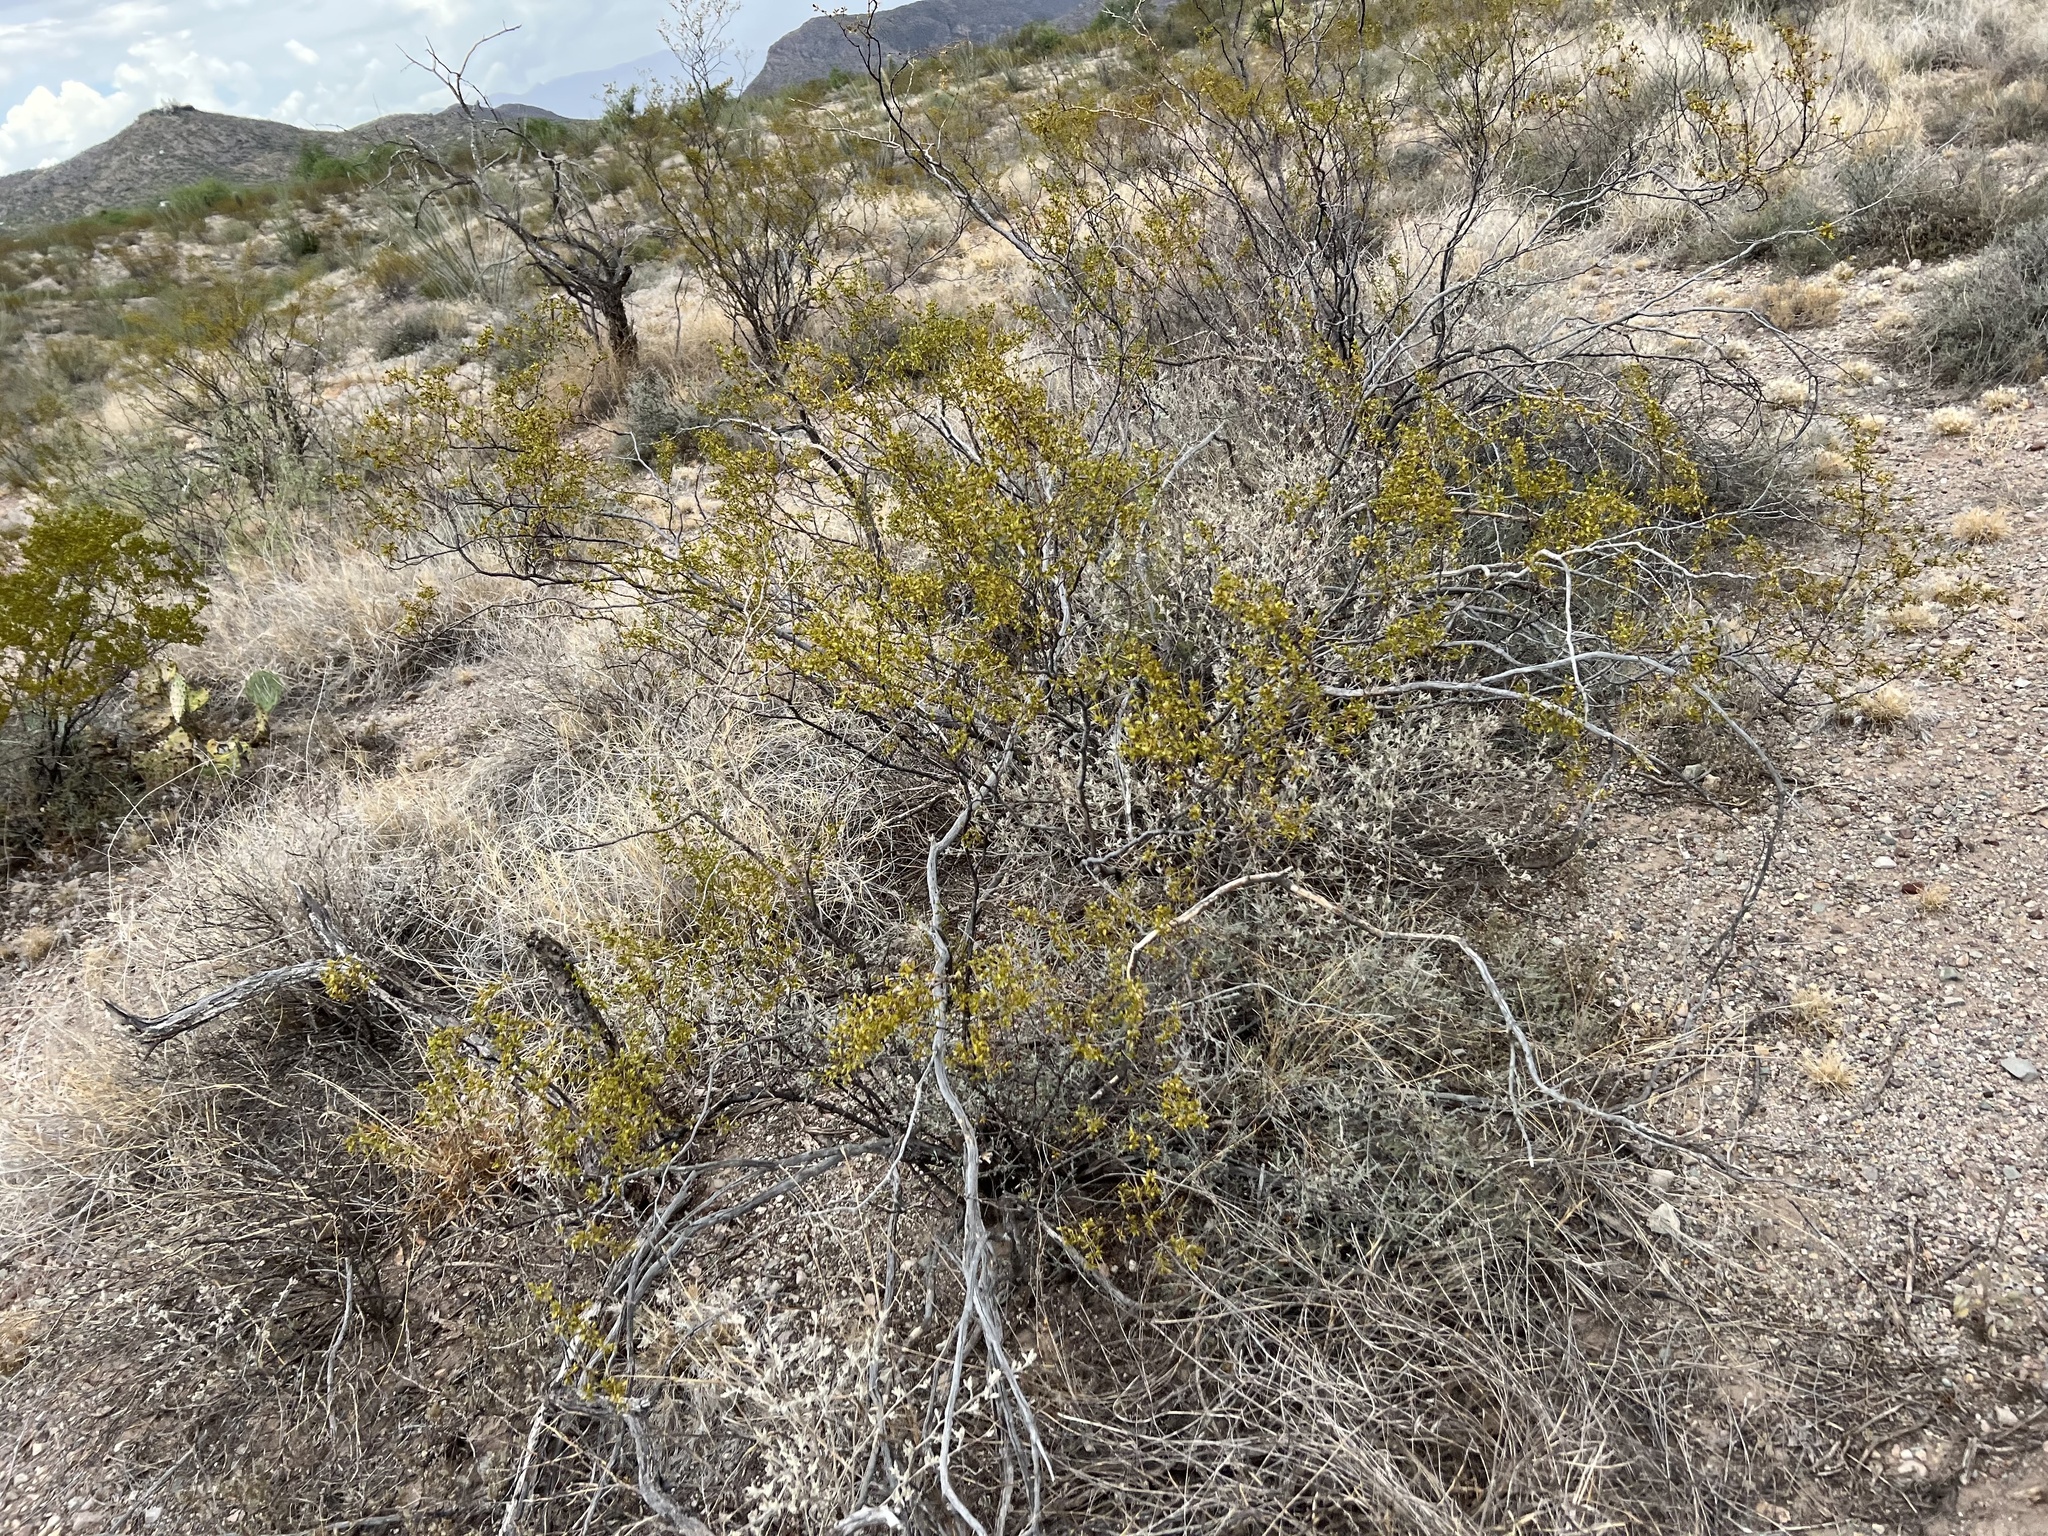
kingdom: Plantae
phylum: Tracheophyta
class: Magnoliopsida
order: Zygophyllales
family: Zygophyllaceae
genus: Larrea
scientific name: Larrea tridentata
